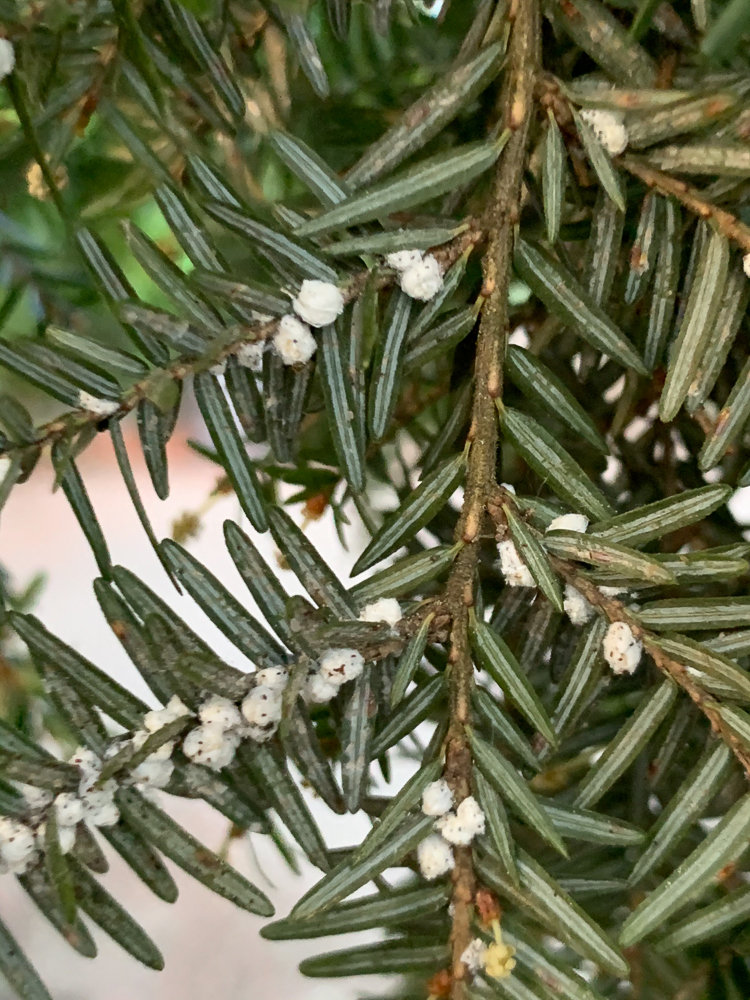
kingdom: Animalia
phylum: Arthropoda
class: Insecta
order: Hemiptera
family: Adelgidae
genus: Adelges
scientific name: Adelges tsugae
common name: Hemlock woolly adelgid
